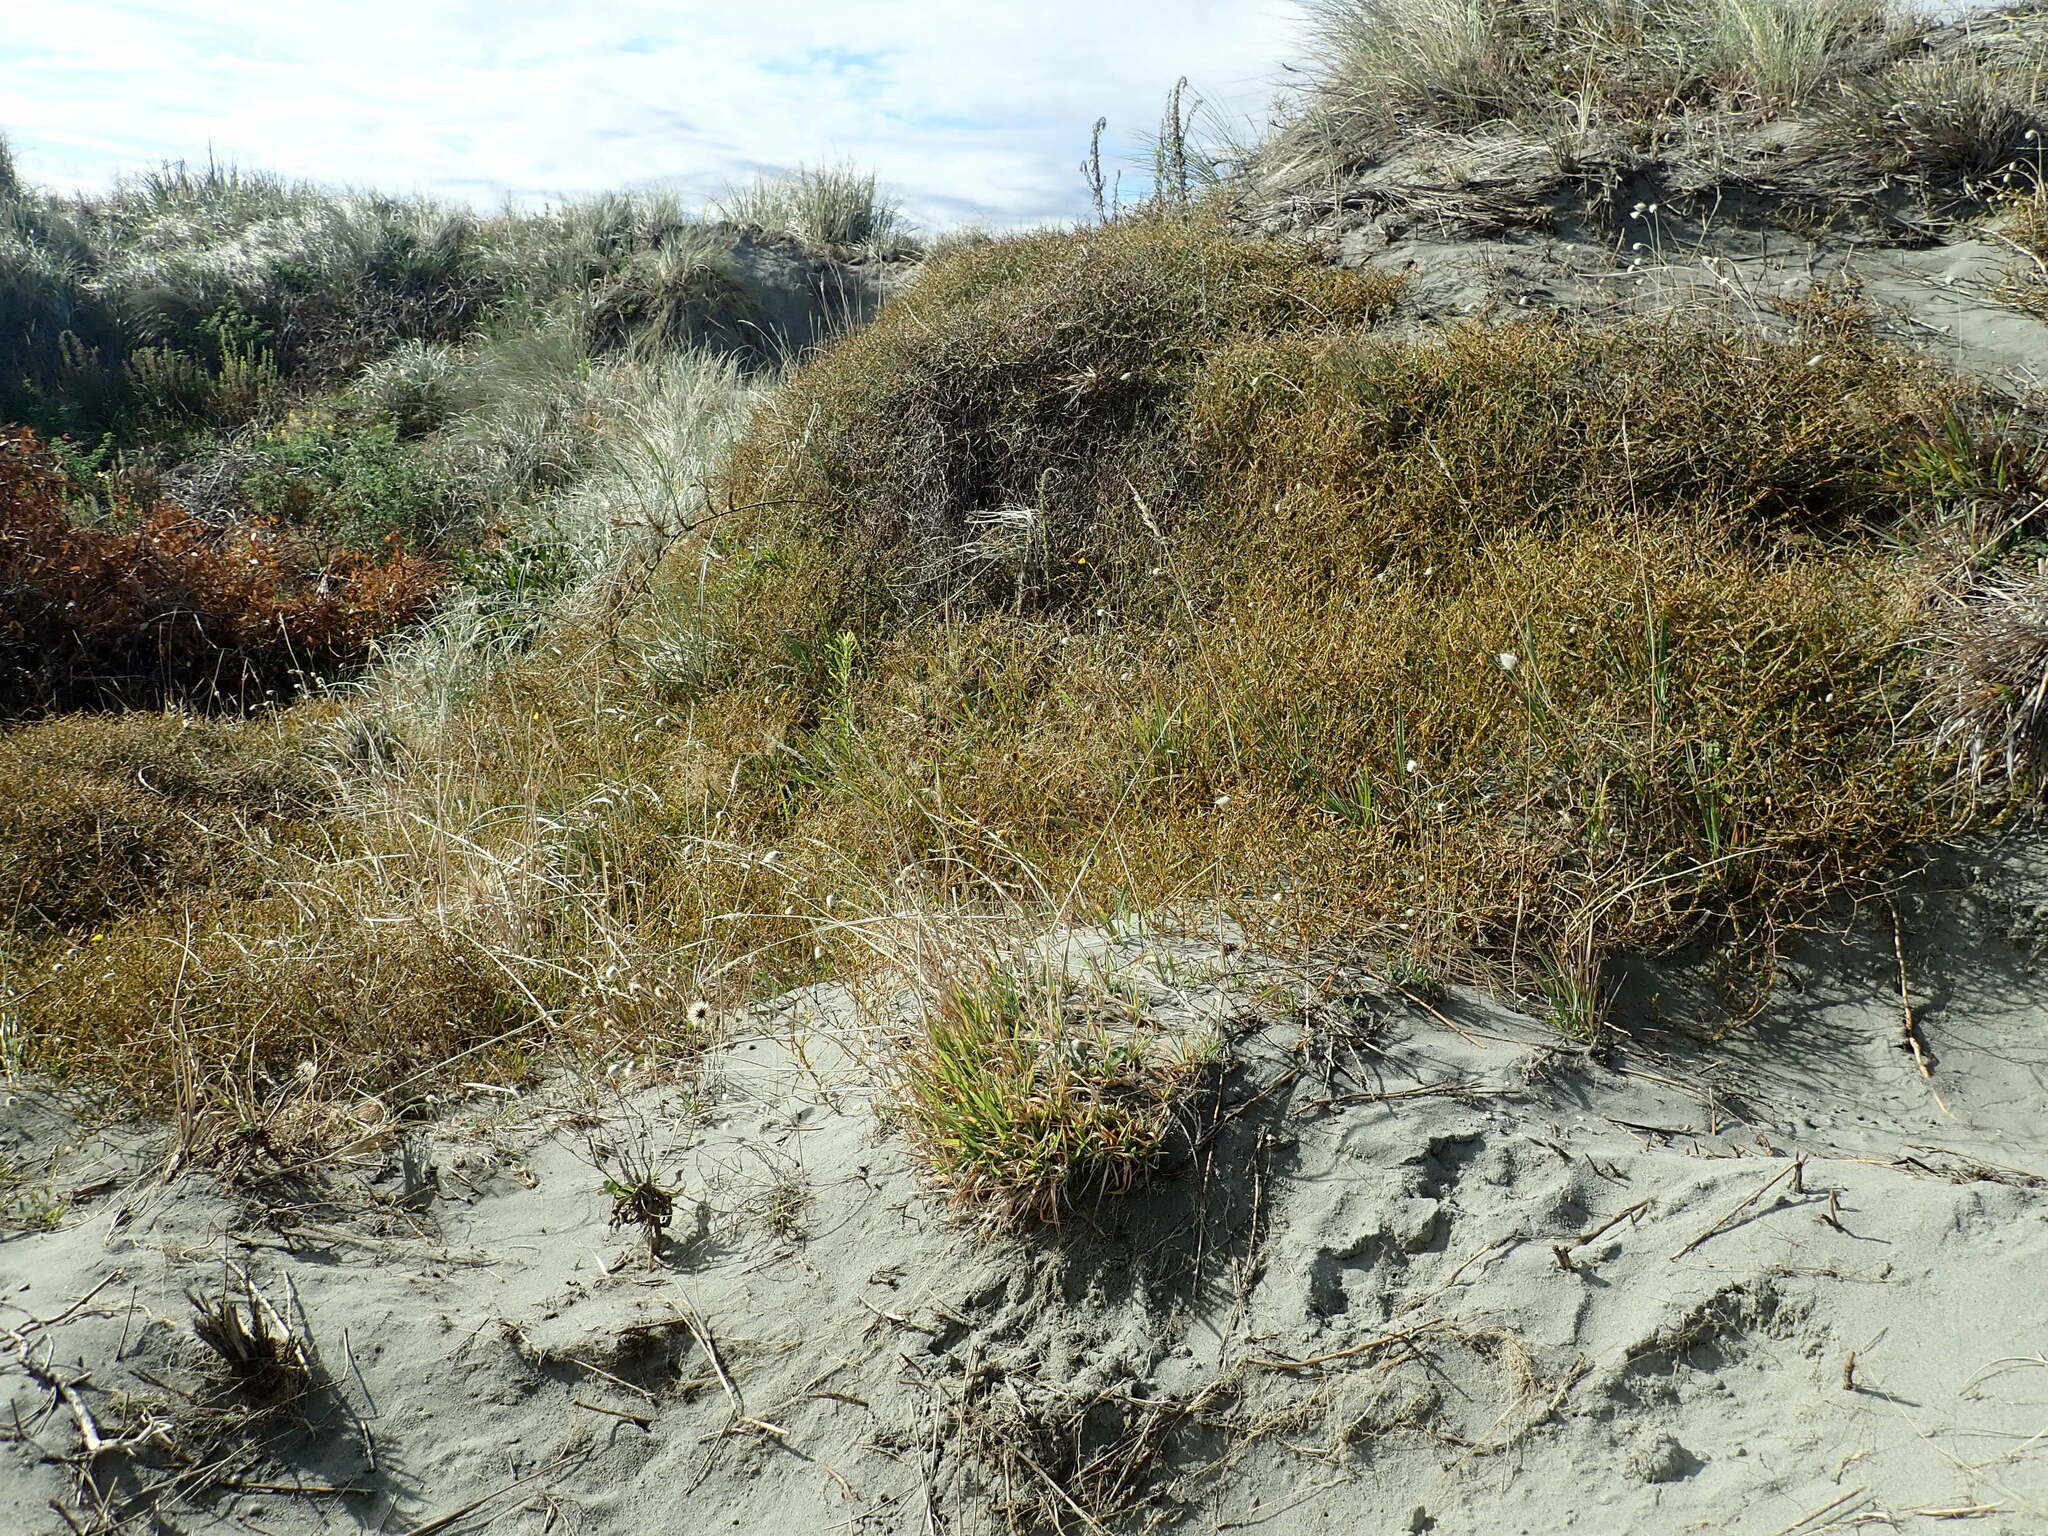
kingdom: Plantae
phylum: Tracheophyta
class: Magnoliopsida
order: Gentianales
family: Rubiaceae
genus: Coprosma
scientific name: Coprosma acerosa
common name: Sand coprosma
